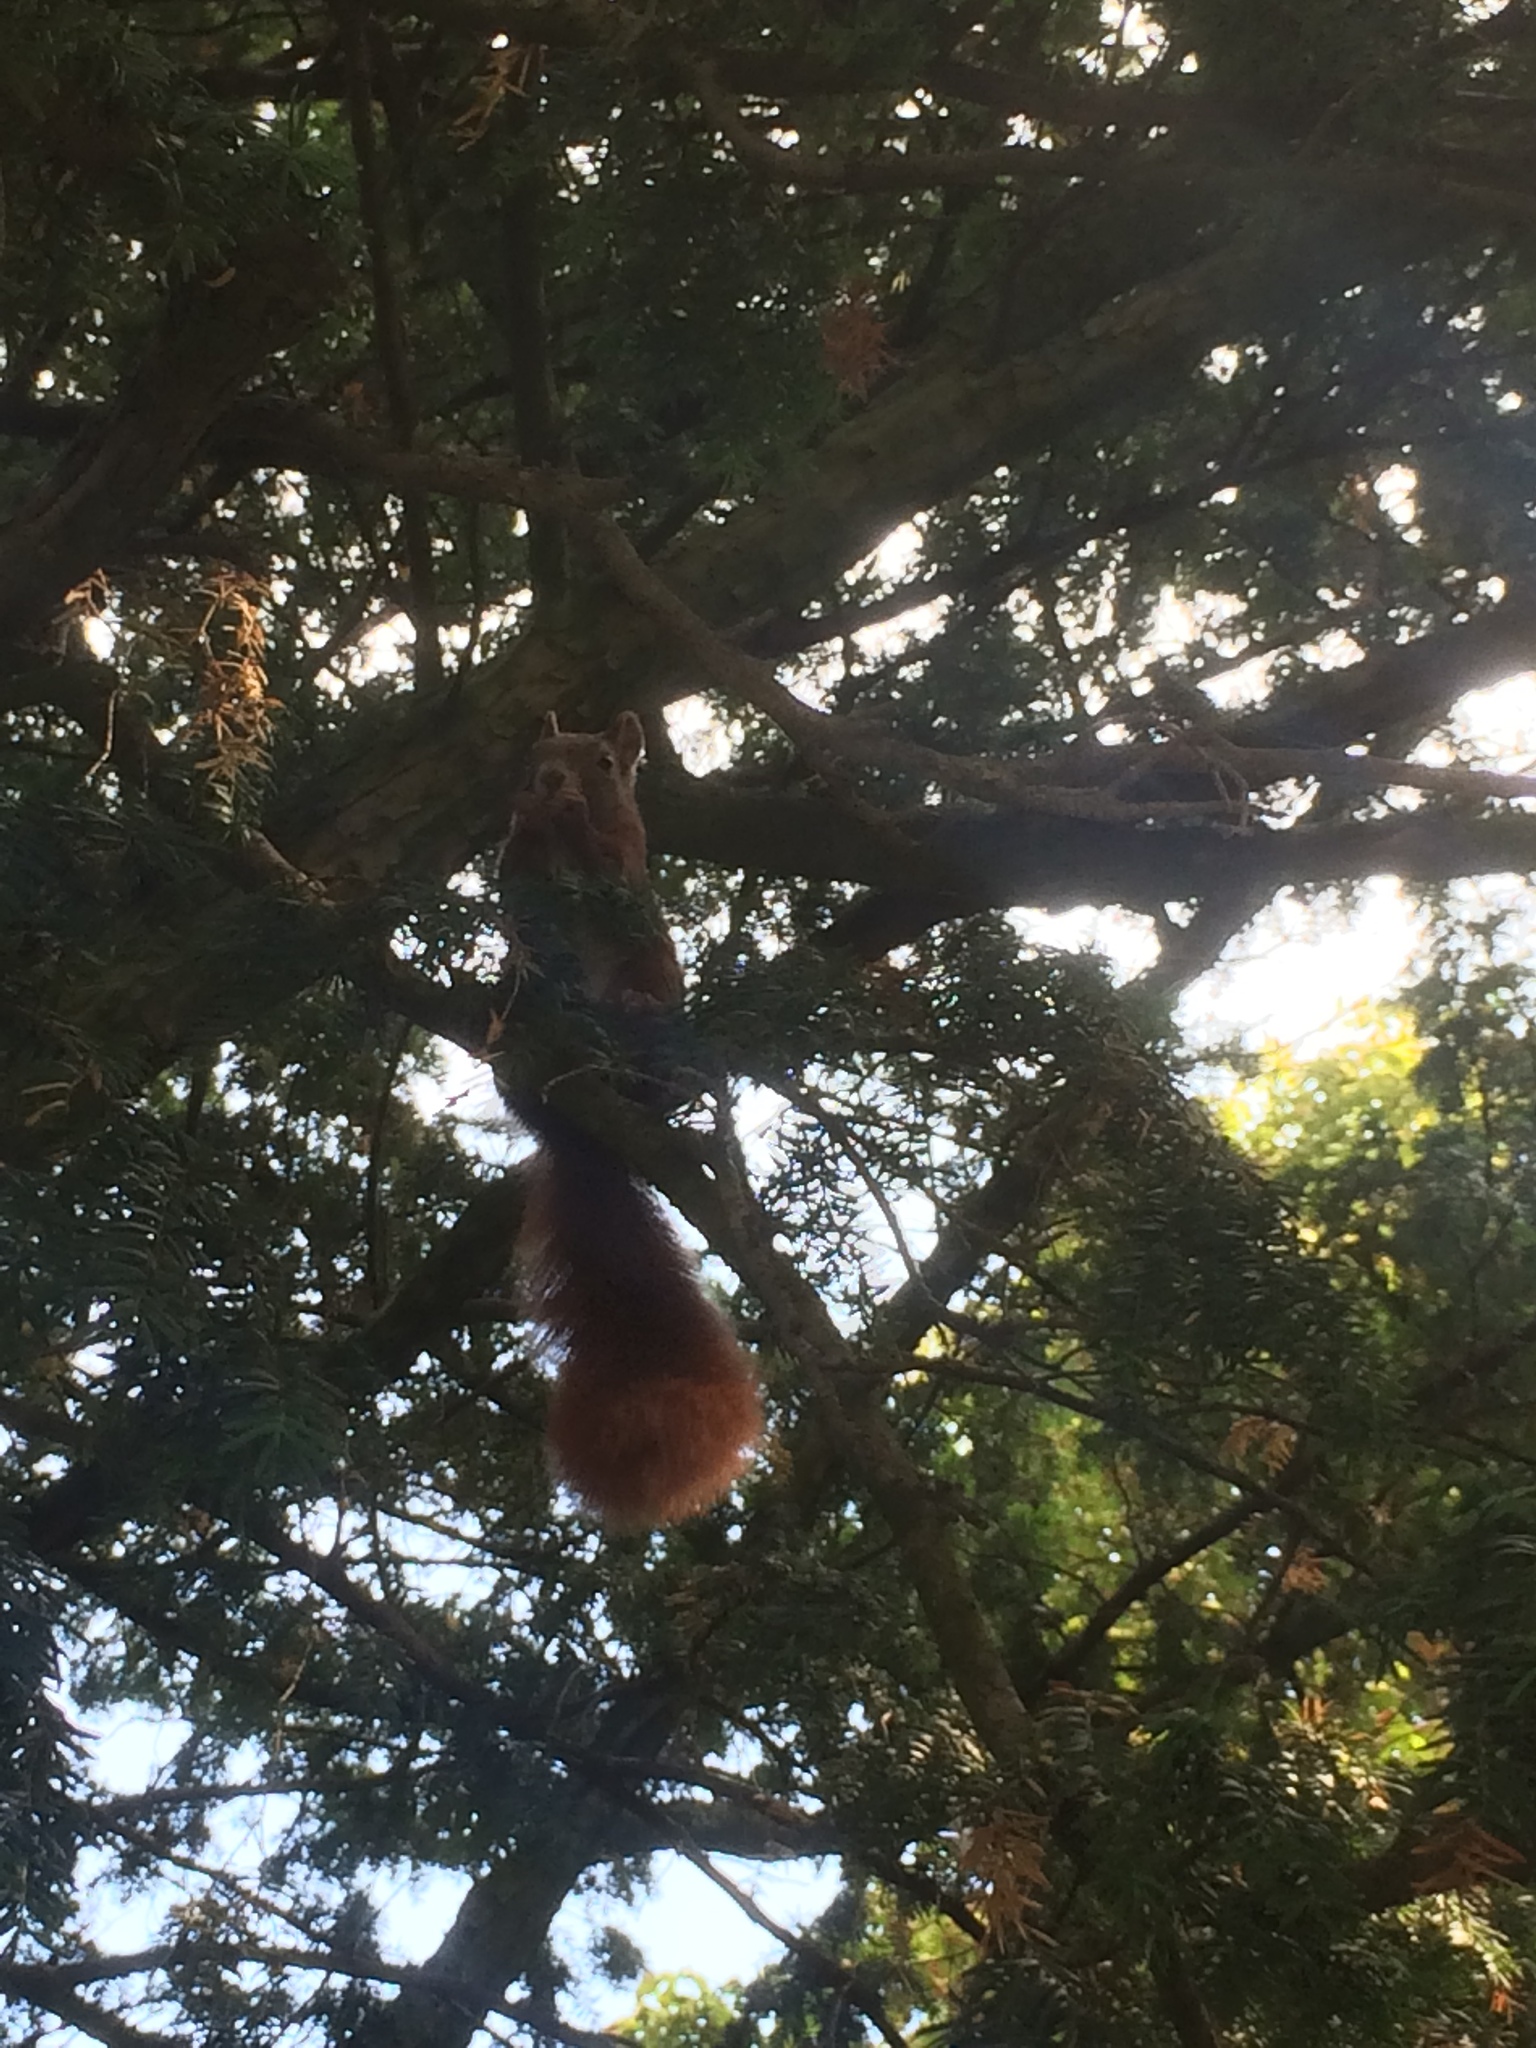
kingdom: Animalia
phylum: Chordata
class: Mammalia
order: Rodentia
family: Sciuridae
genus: Sciurus
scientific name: Sciurus vulgaris
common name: Eurasian red squirrel
